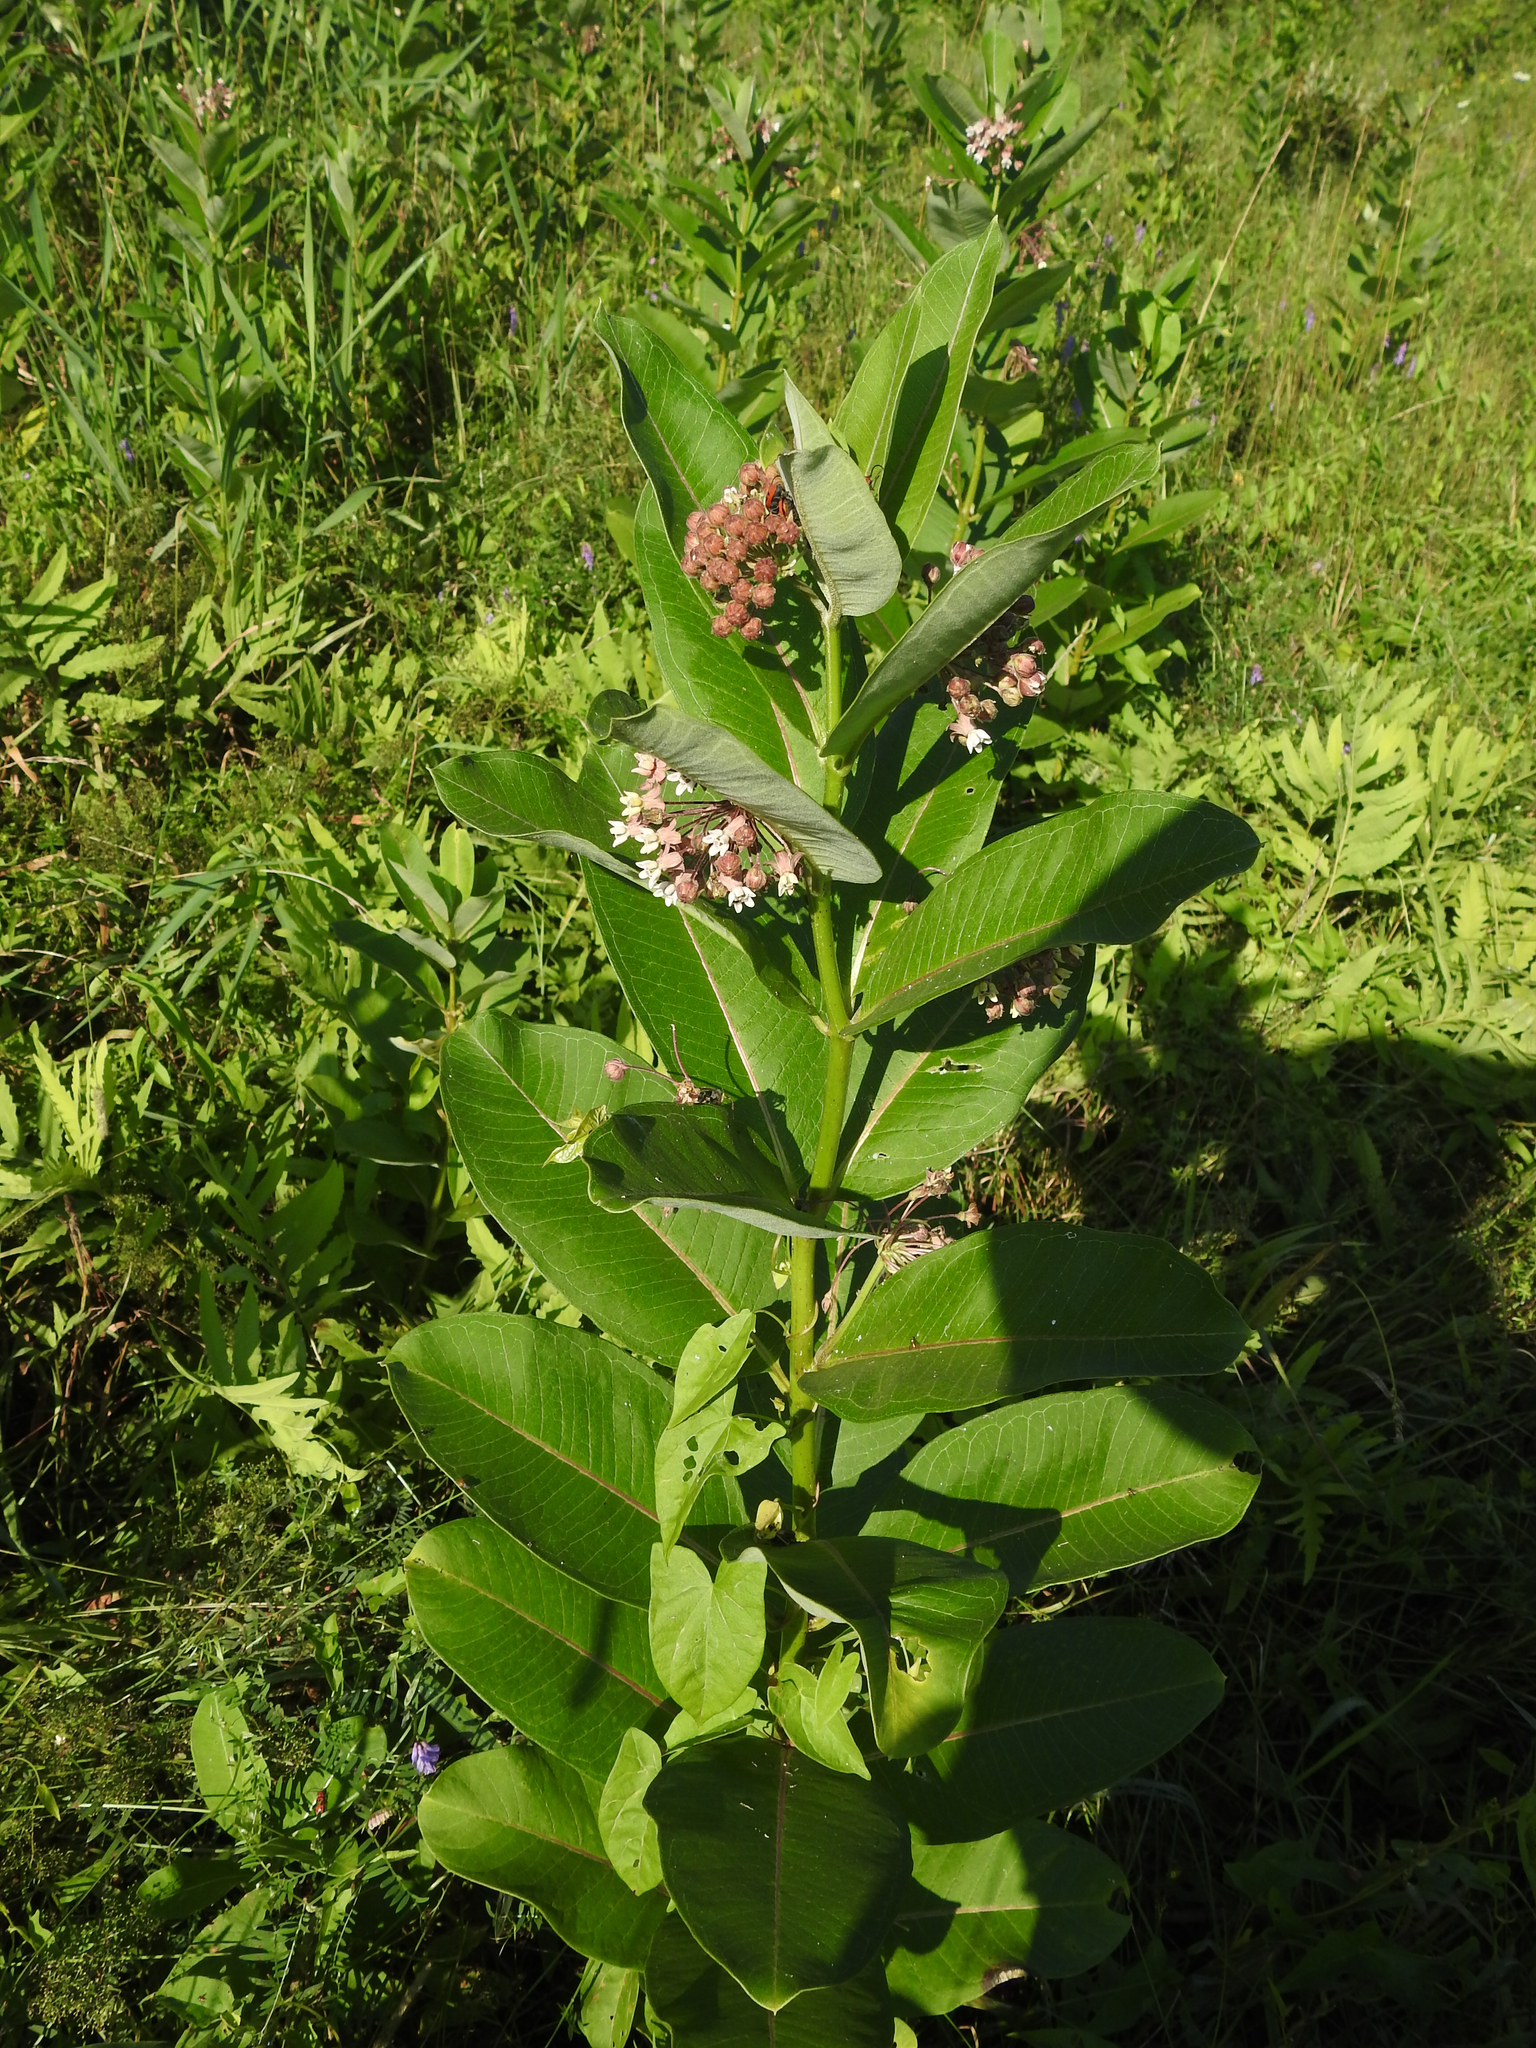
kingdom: Plantae
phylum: Tracheophyta
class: Magnoliopsida
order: Gentianales
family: Apocynaceae
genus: Asclepias
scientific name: Asclepias syriaca
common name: Common milkweed
